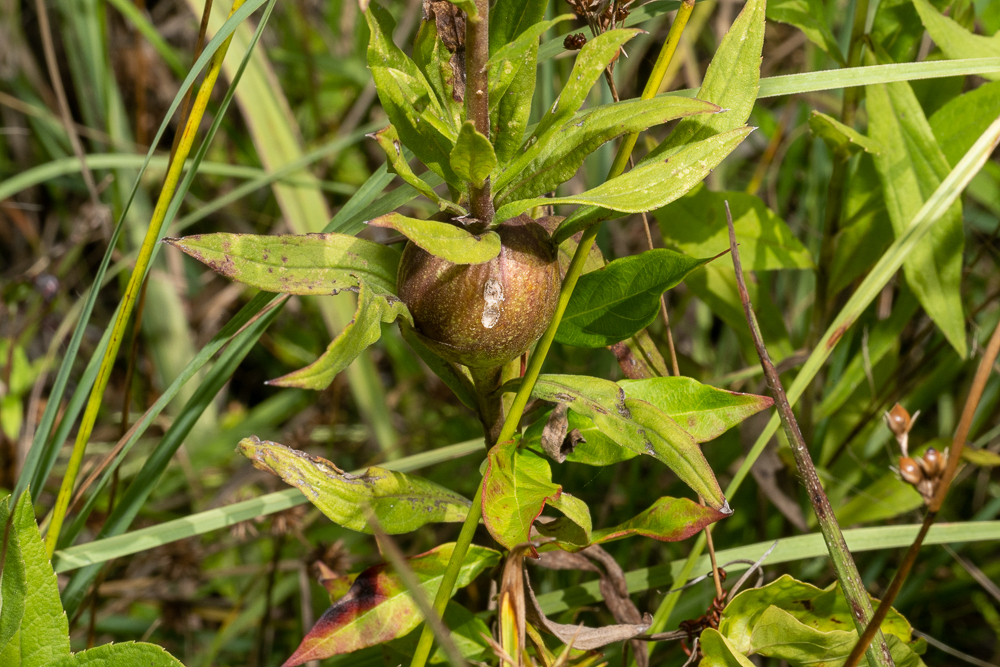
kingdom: Animalia
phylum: Arthropoda
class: Insecta
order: Diptera
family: Tephritidae
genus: Eurosta
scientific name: Eurosta solidaginis
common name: Goldenrod gall fly
